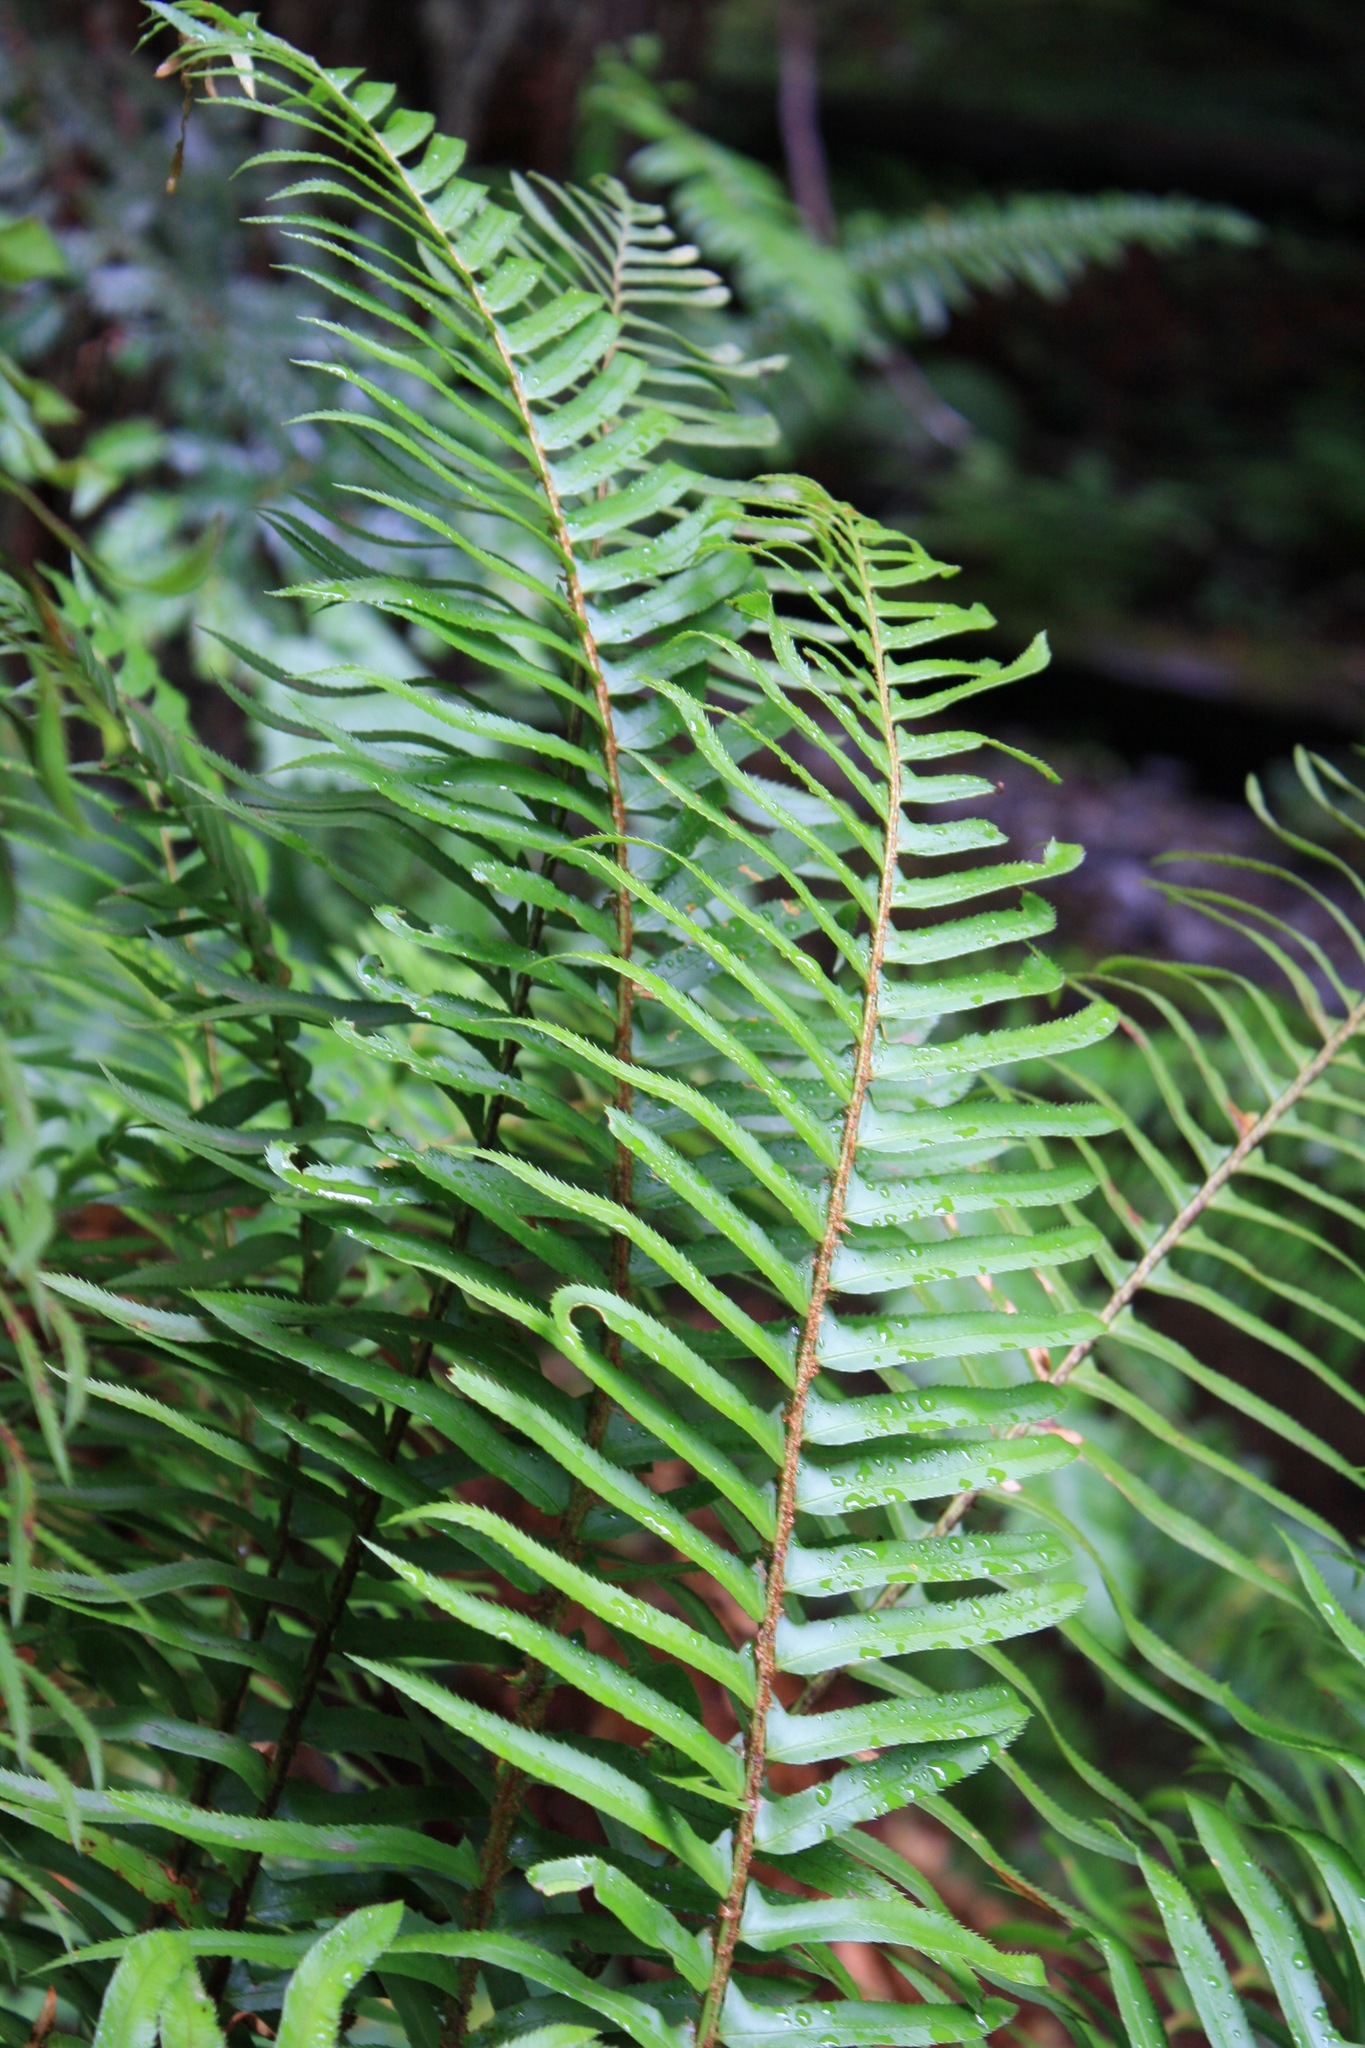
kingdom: Plantae
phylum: Tracheophyta
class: Polypodiopsida
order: Polypodiales
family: Dryopteridaceae
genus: Polystichum
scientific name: Polystichum munitum
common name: Western sword-fern
